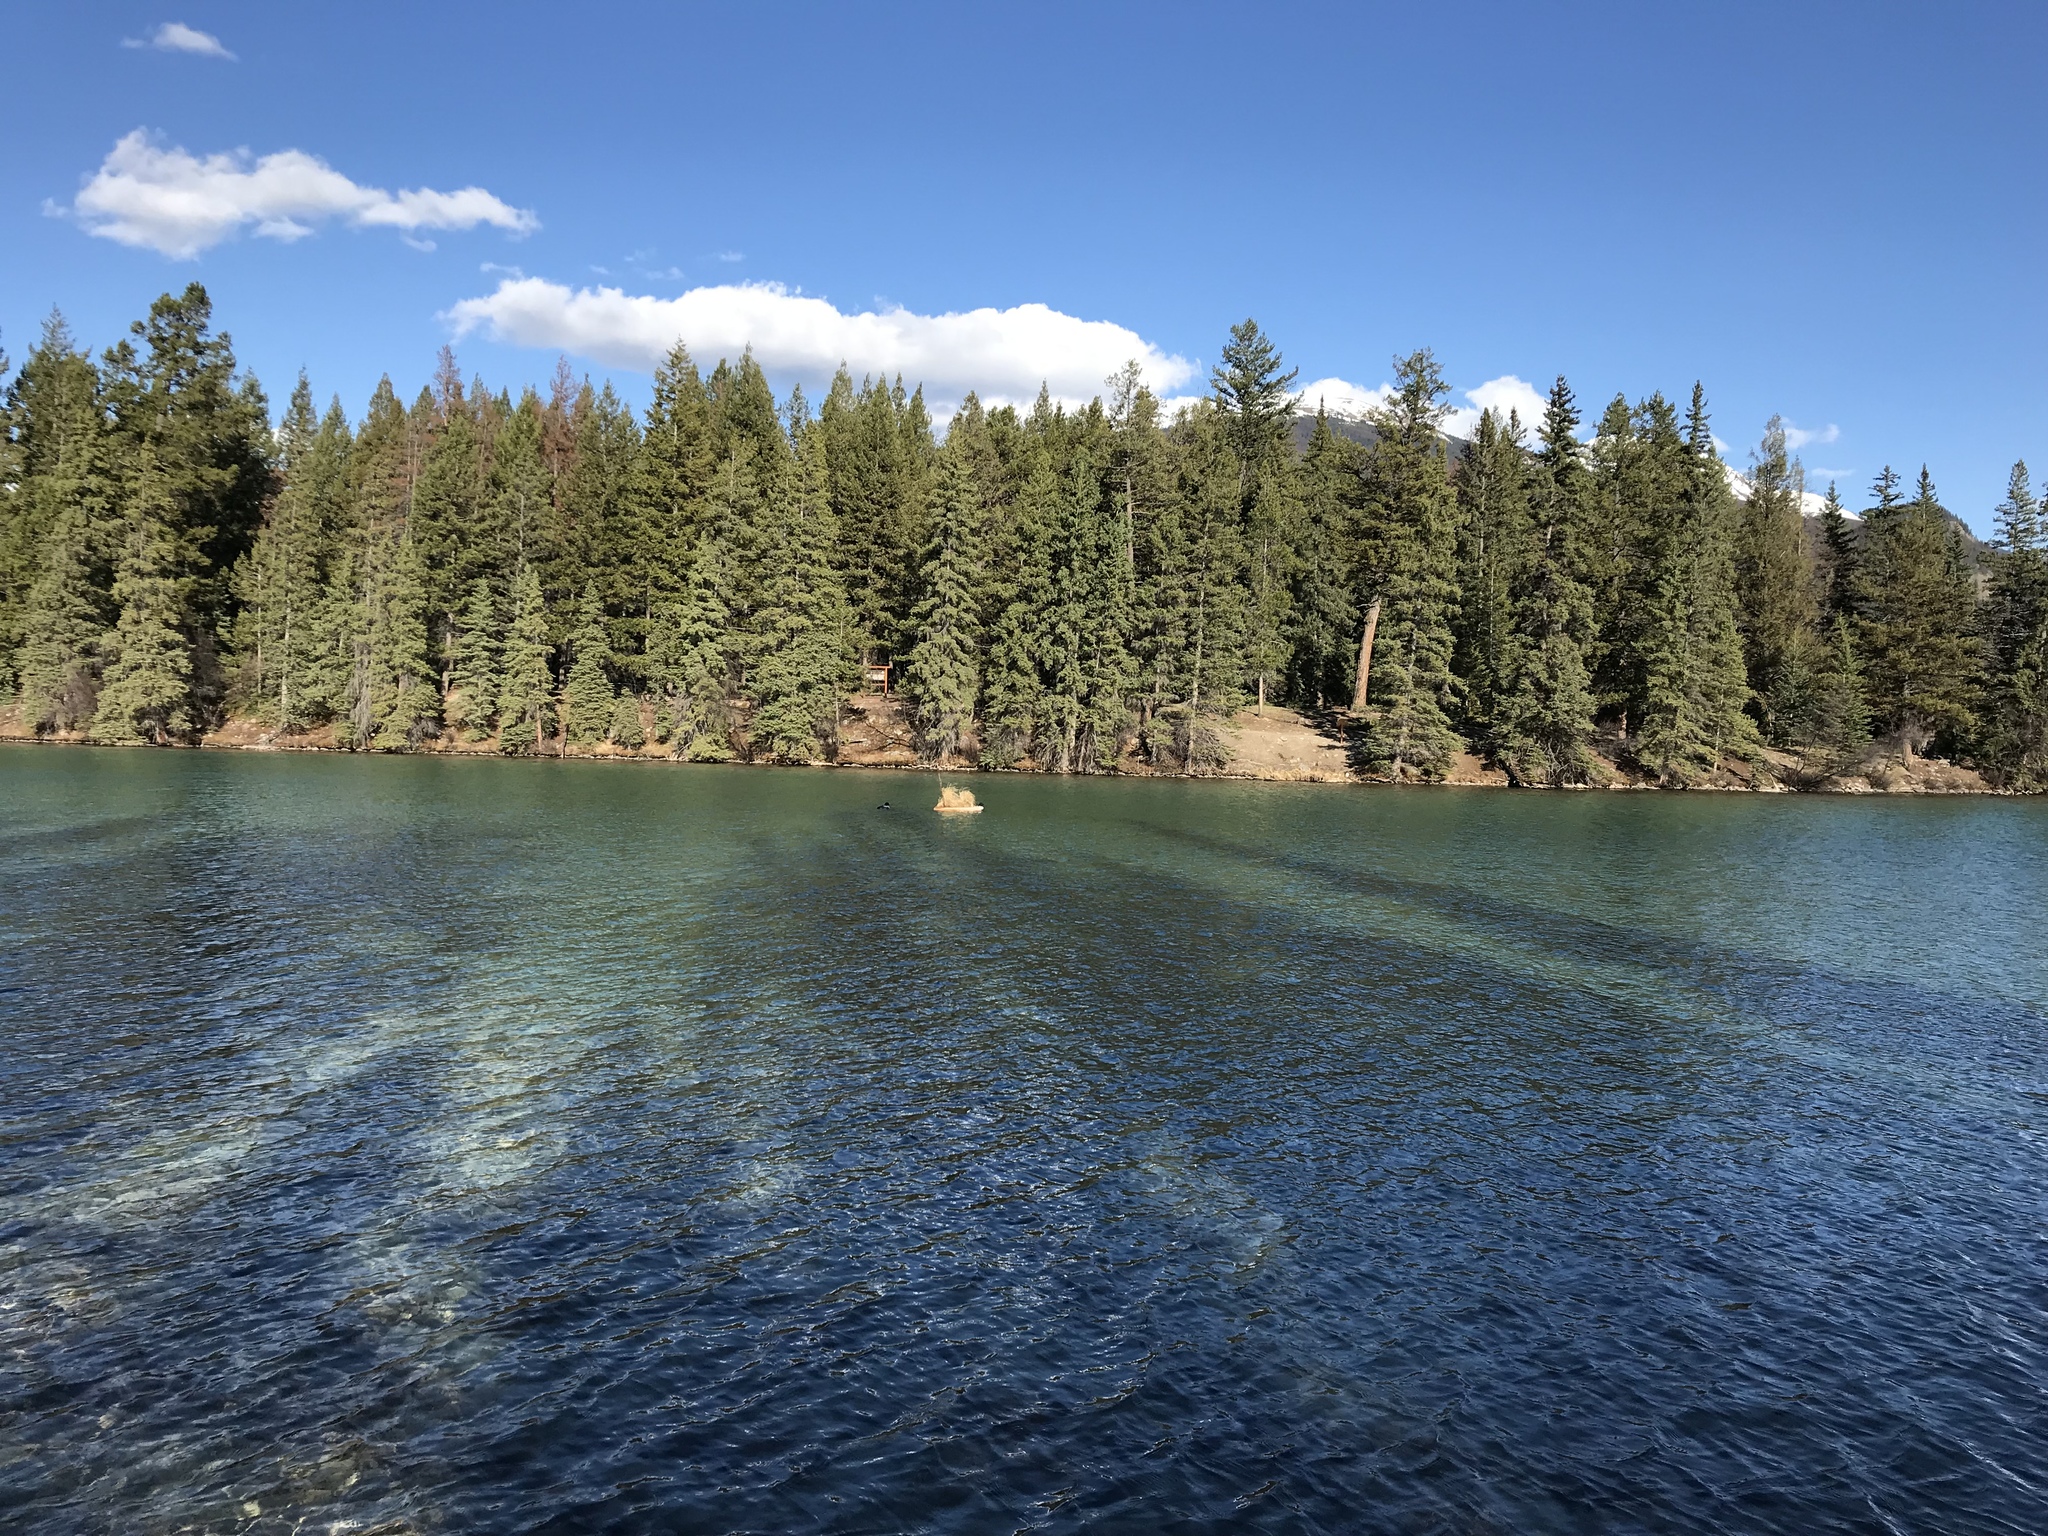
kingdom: Animalia
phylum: Chordata
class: Aves
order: Gaviiformes
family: Gaviidae
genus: Gavia
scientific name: Gavia immer
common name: Common loon
